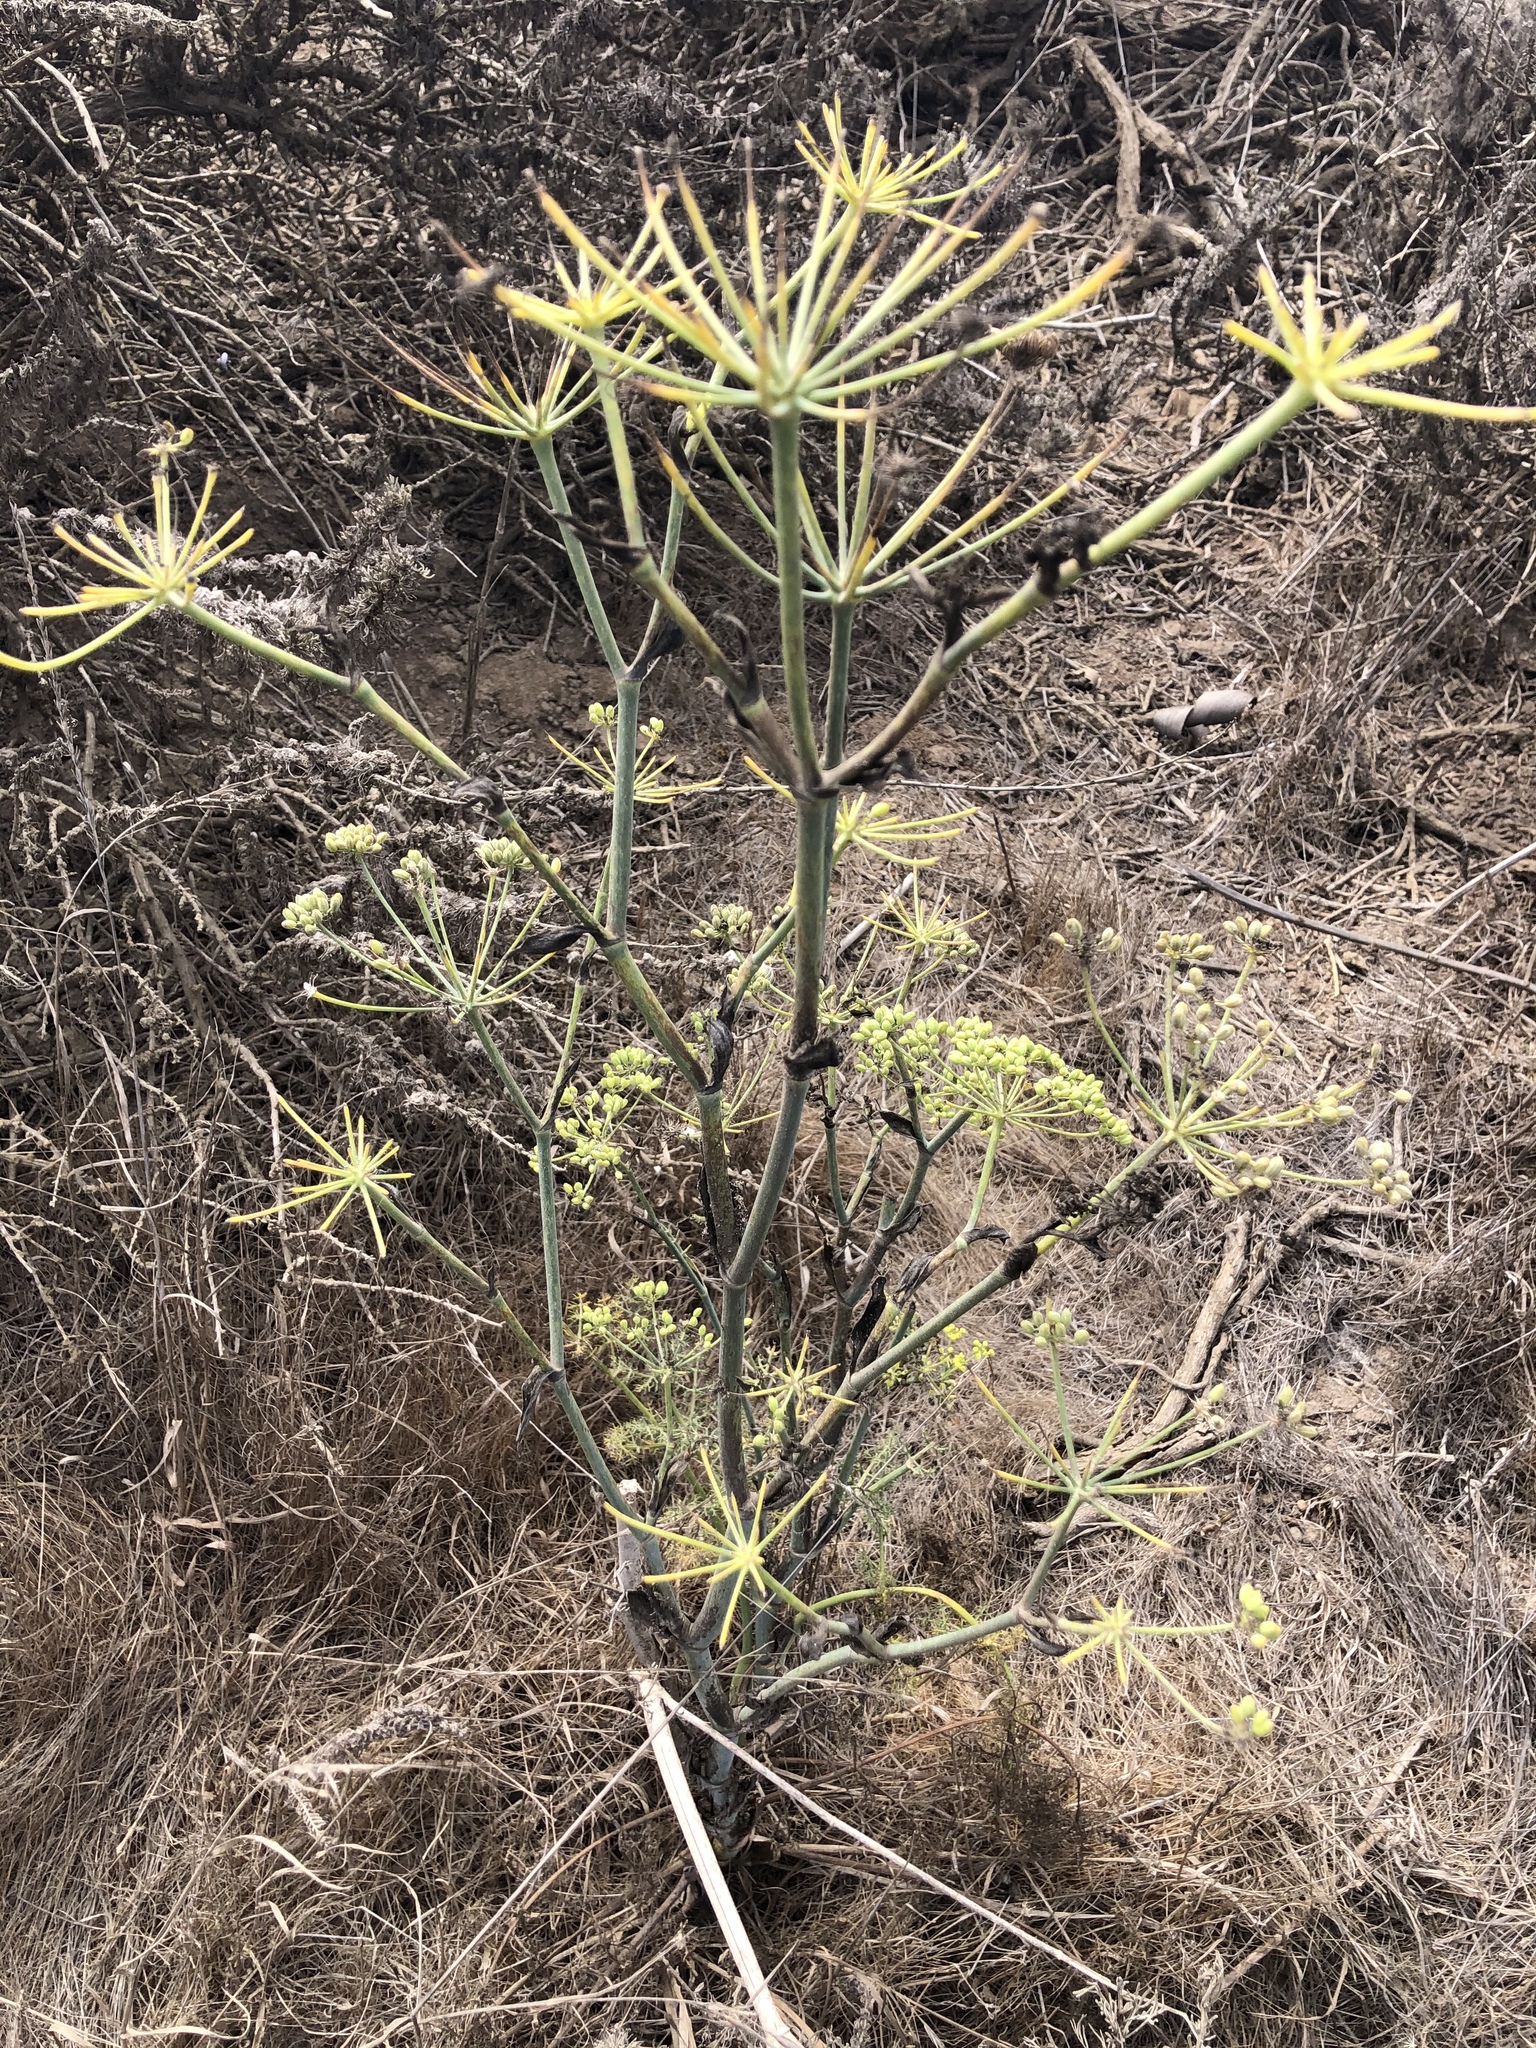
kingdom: Plantae
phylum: Tracheophyta
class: Magnoliopsida
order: Apiales
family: Apiaceae
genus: Foeniculum
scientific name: Foeniculum vulgare
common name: Fennel
